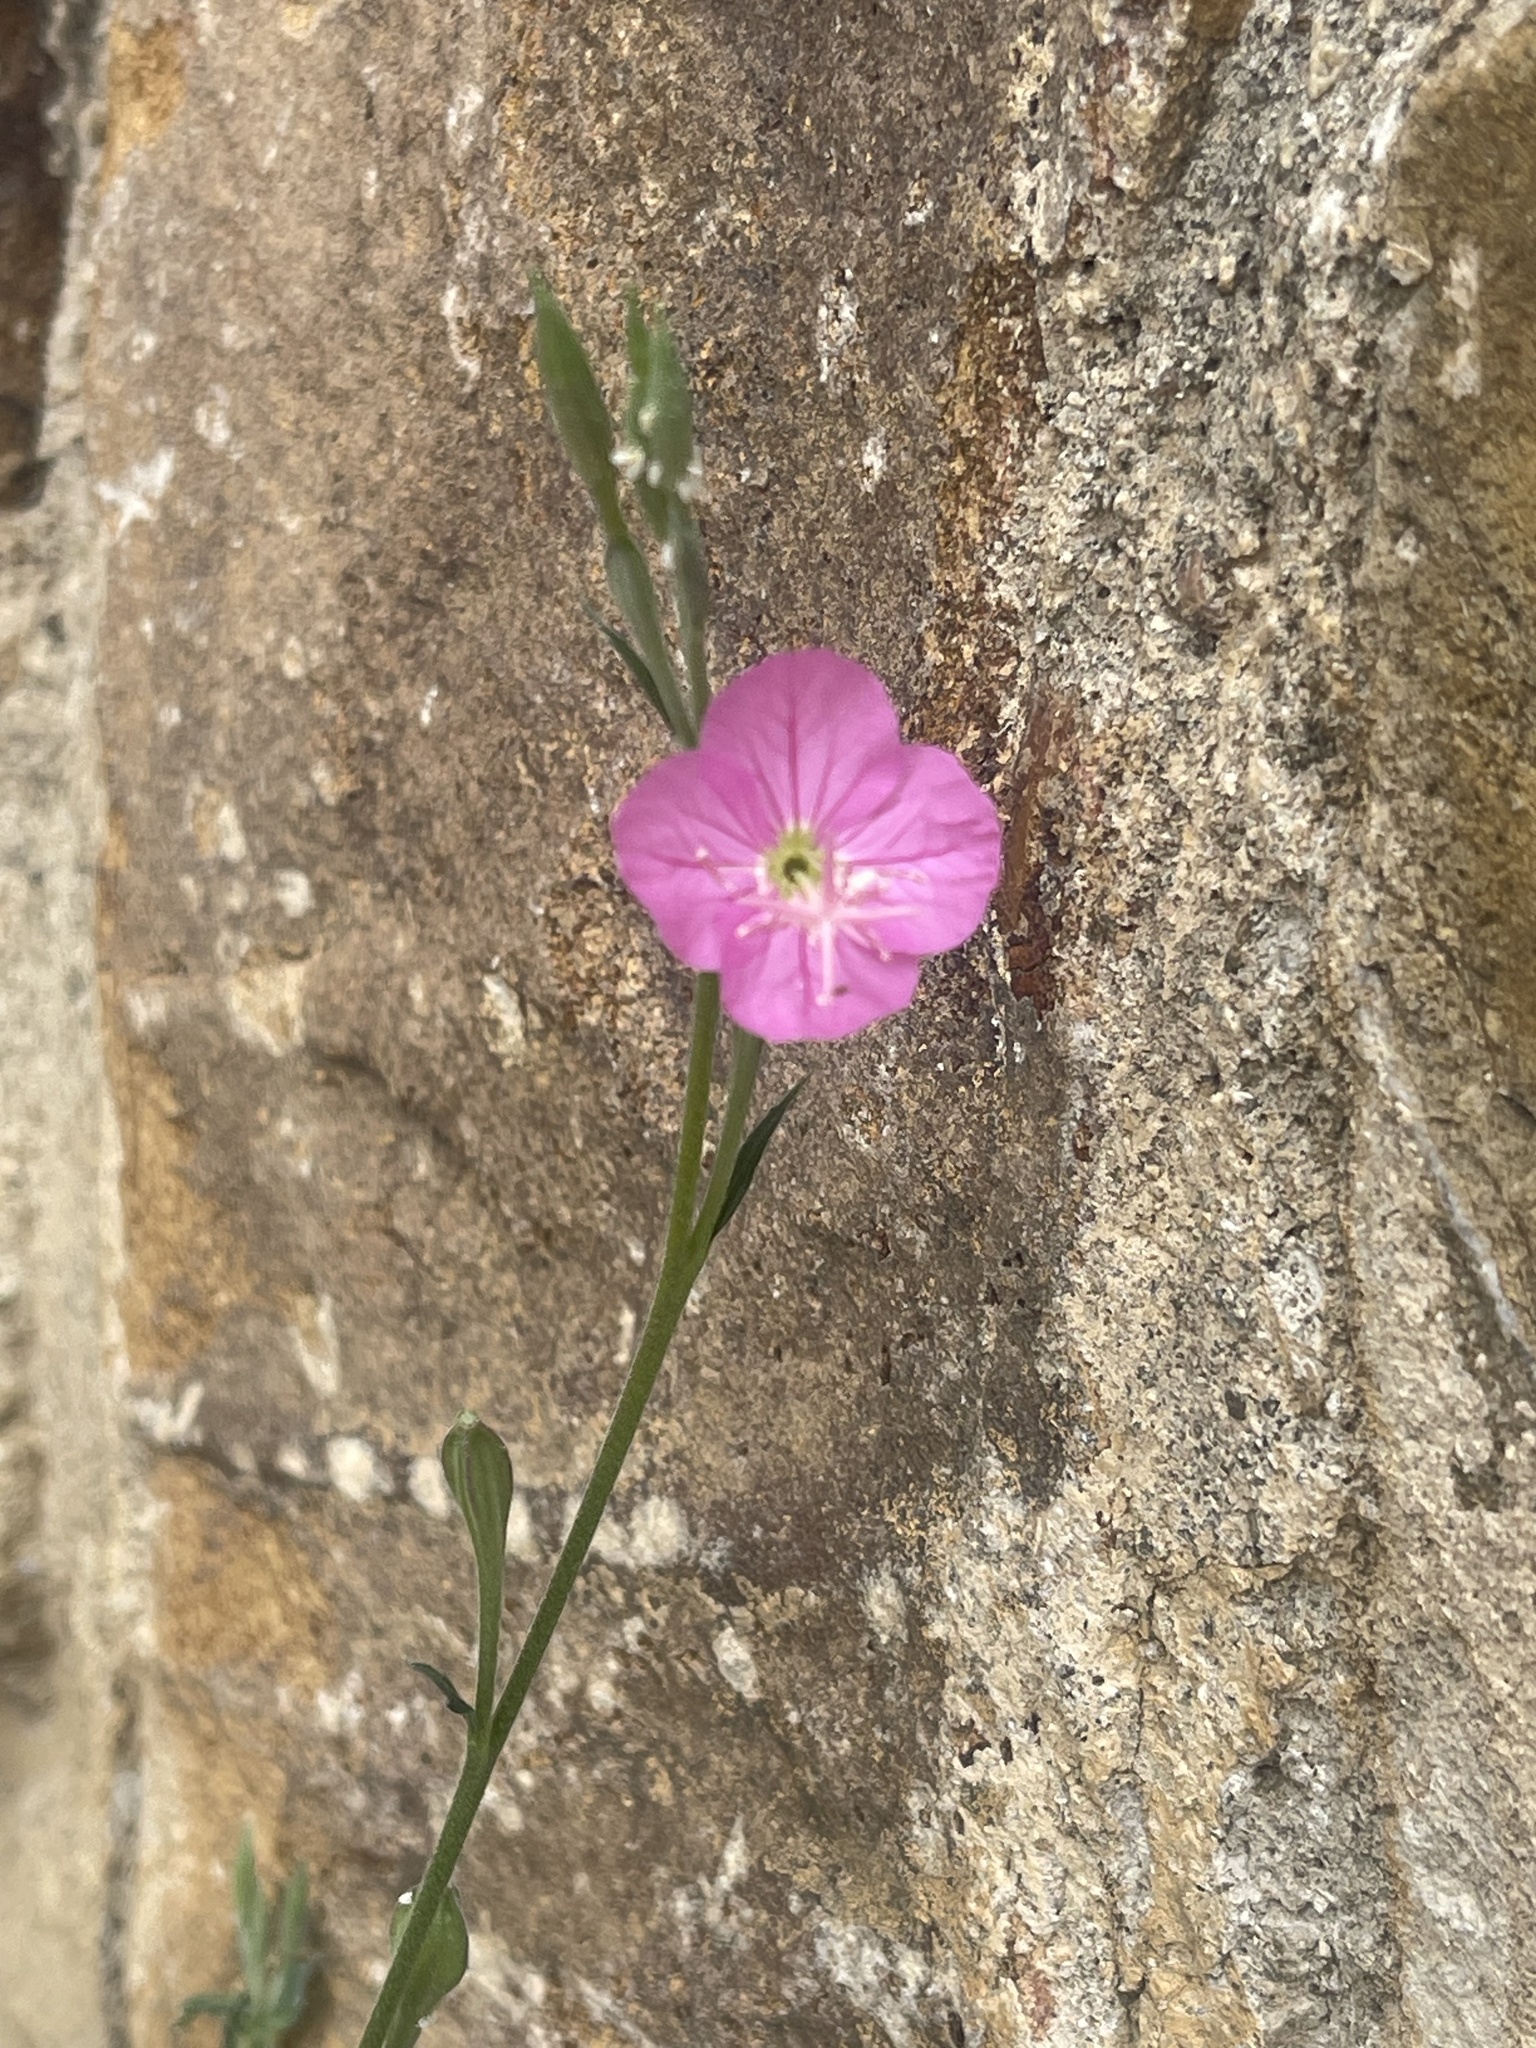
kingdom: Plantae
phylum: Tracheophyta
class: Magnoliopsida
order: Myrtales
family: Onagraceae
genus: Oenothera
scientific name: Oenothera rosea
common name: Rosy evening-primrose
